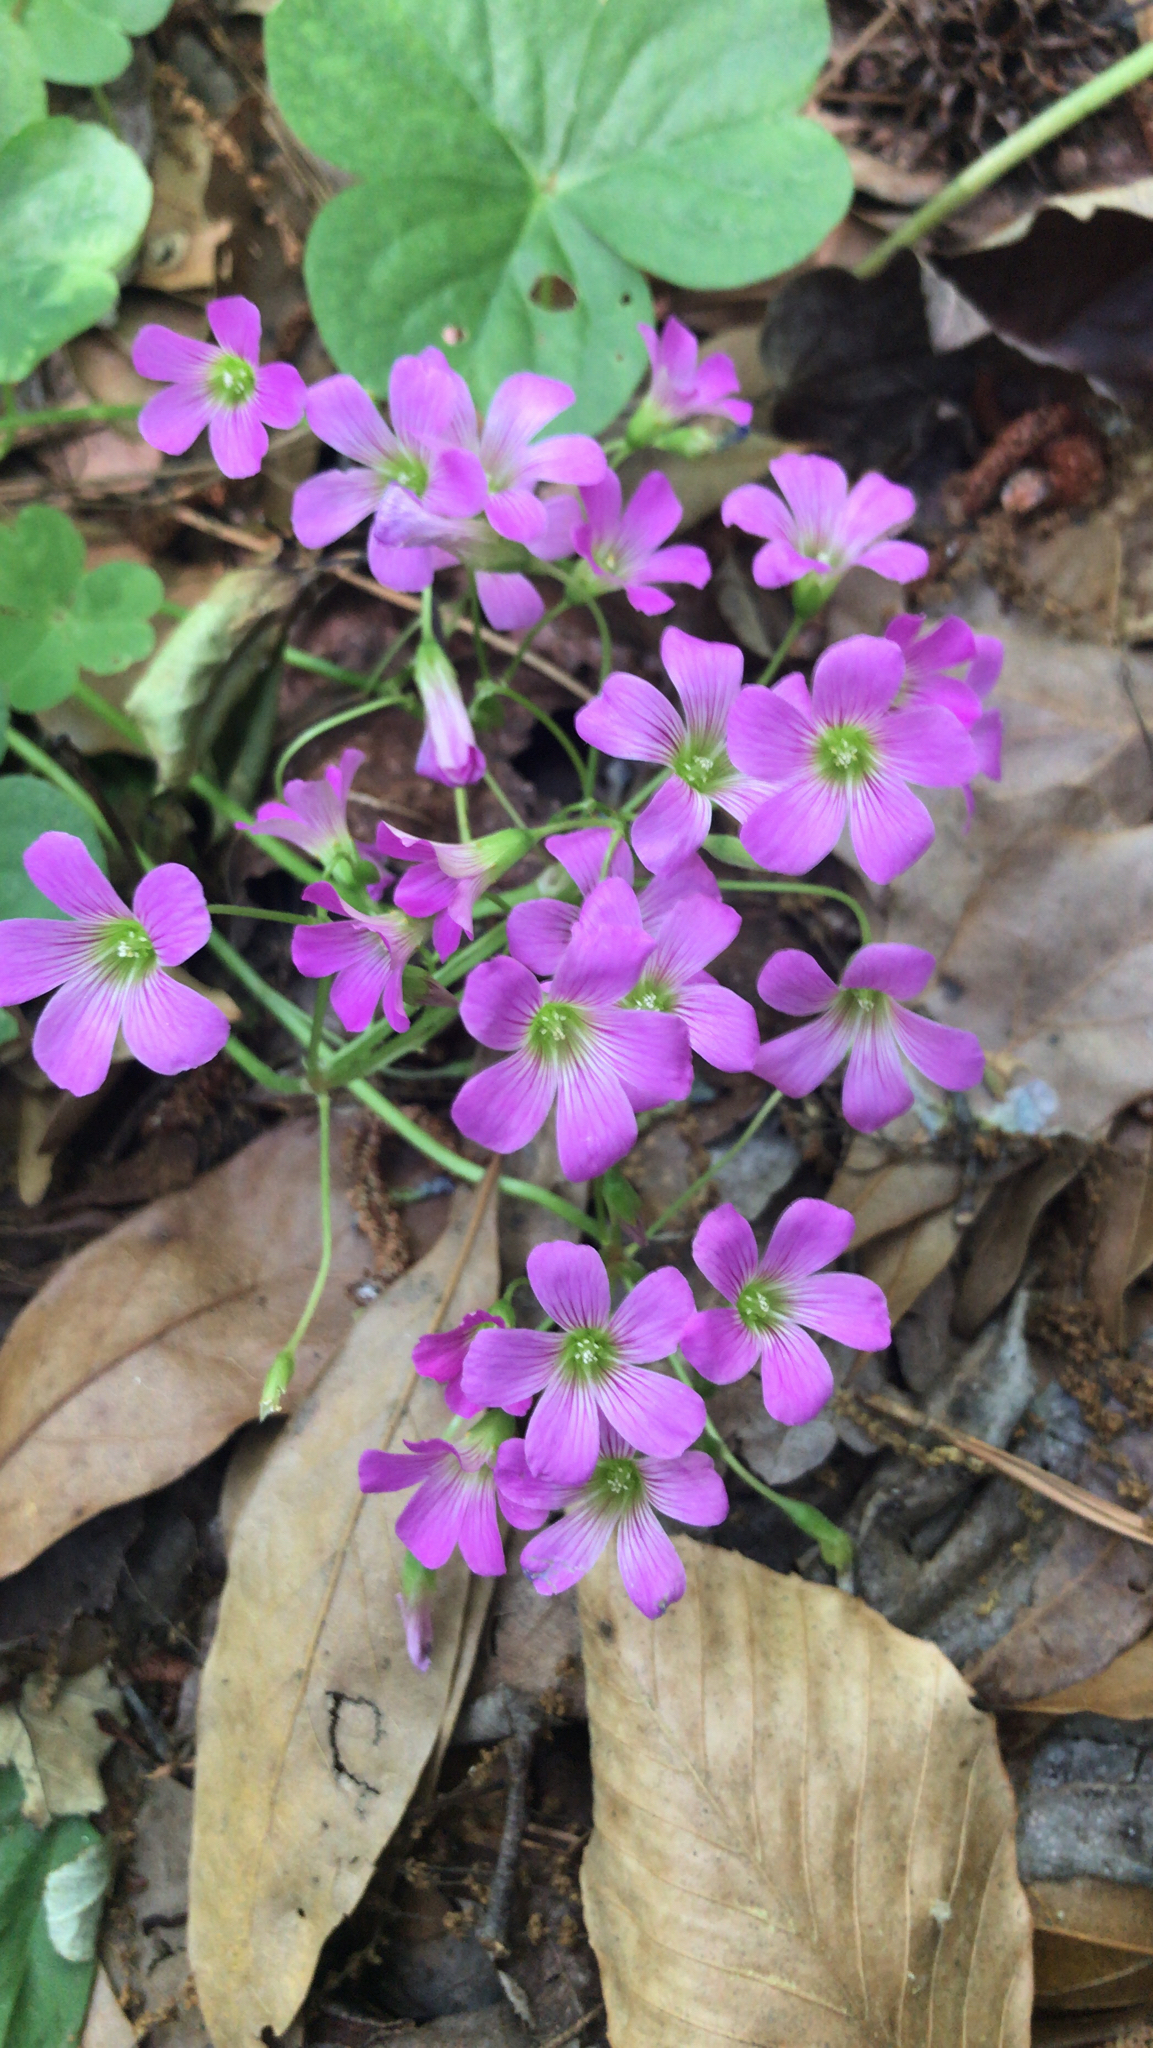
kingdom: Plantae
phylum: Tracheophyta
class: Magnoliopsida
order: Oxalidales
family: Oxalidaceae
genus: Oxalis
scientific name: Oxalis debilis
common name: Large-flowered pink-sorrel
